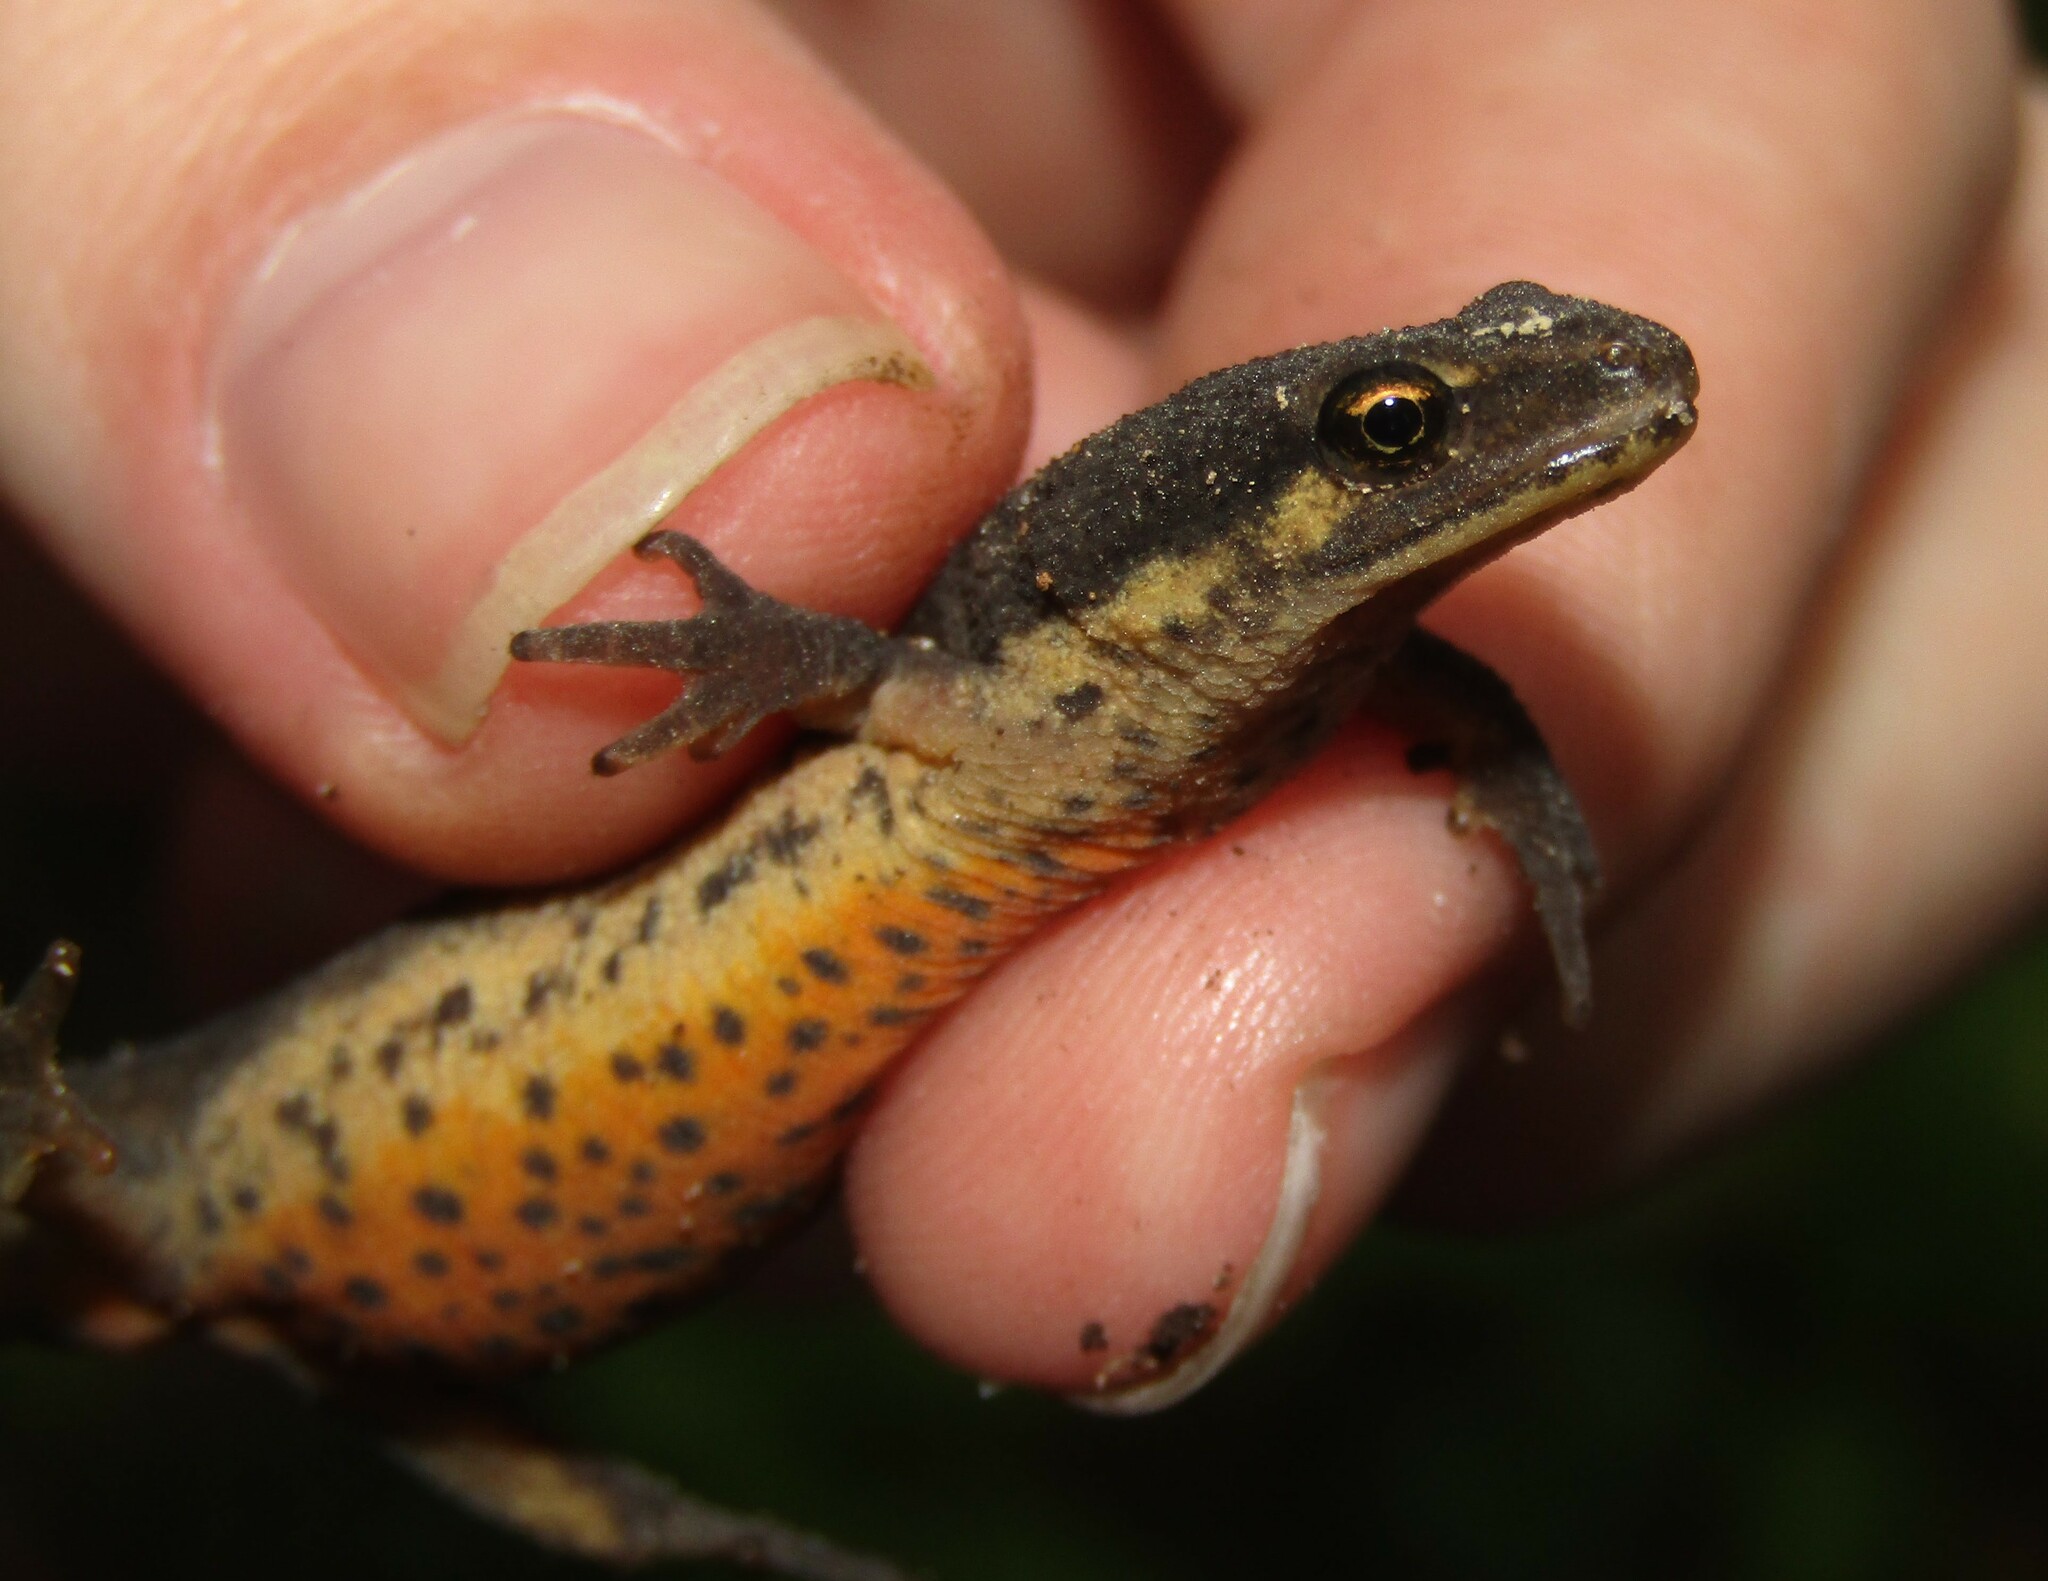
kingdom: Animalia
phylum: Chordata
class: Amphibia
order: Caudata
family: Salamandridae
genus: Lissotriton
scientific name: Lissotriton vulgaris
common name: Smooth newt
